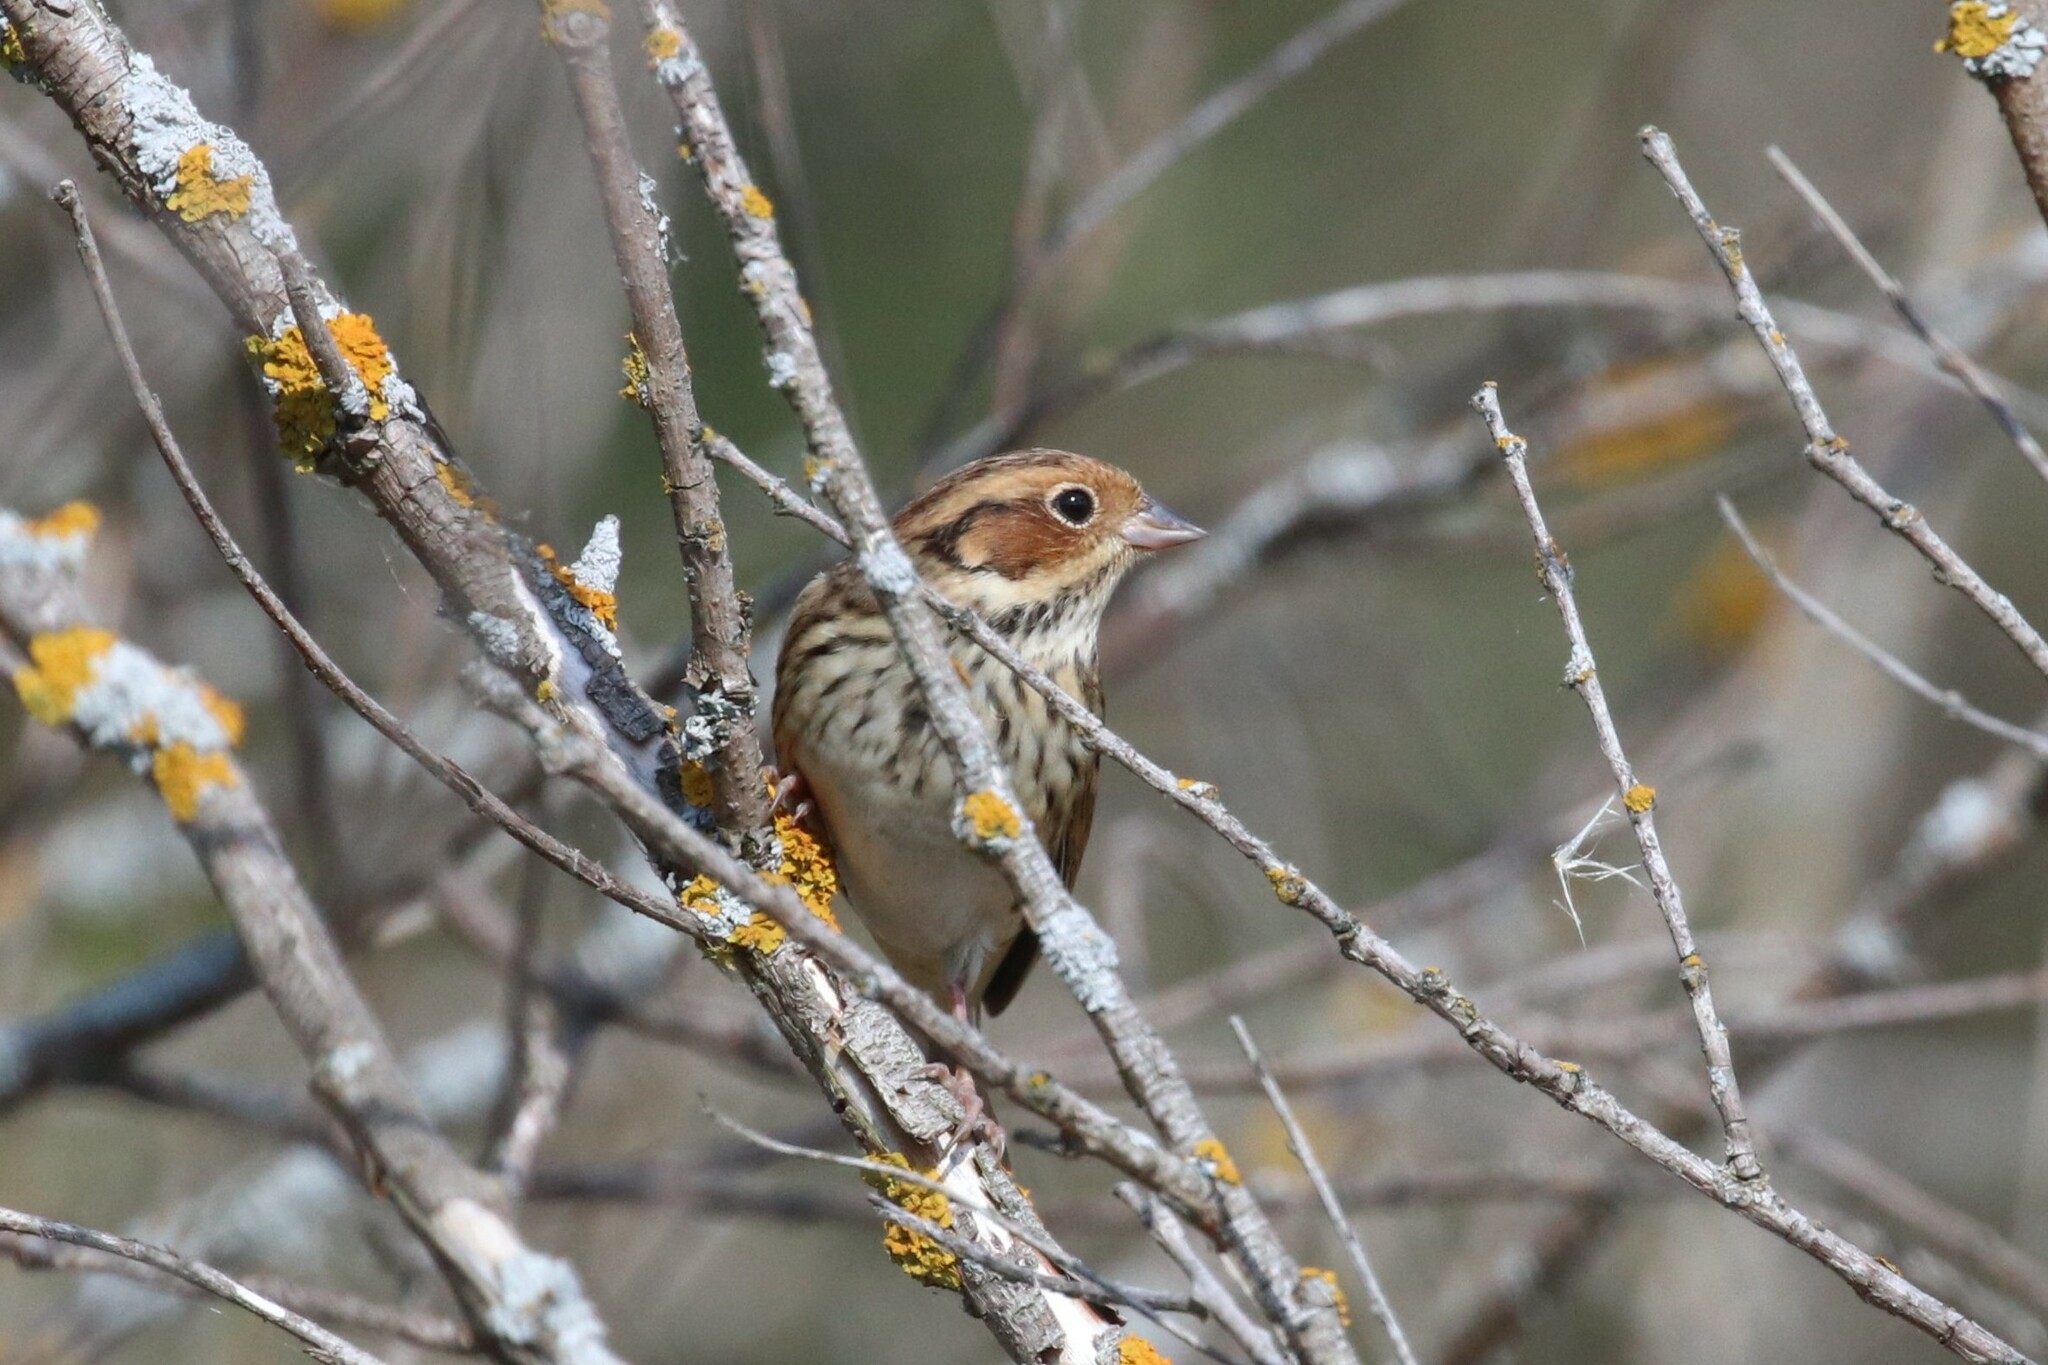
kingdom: Animalia
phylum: Chordata
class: Aves
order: Passeriformes
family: Emberizidae
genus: Emberiza
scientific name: Emberiza pusilla
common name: Little bunting
